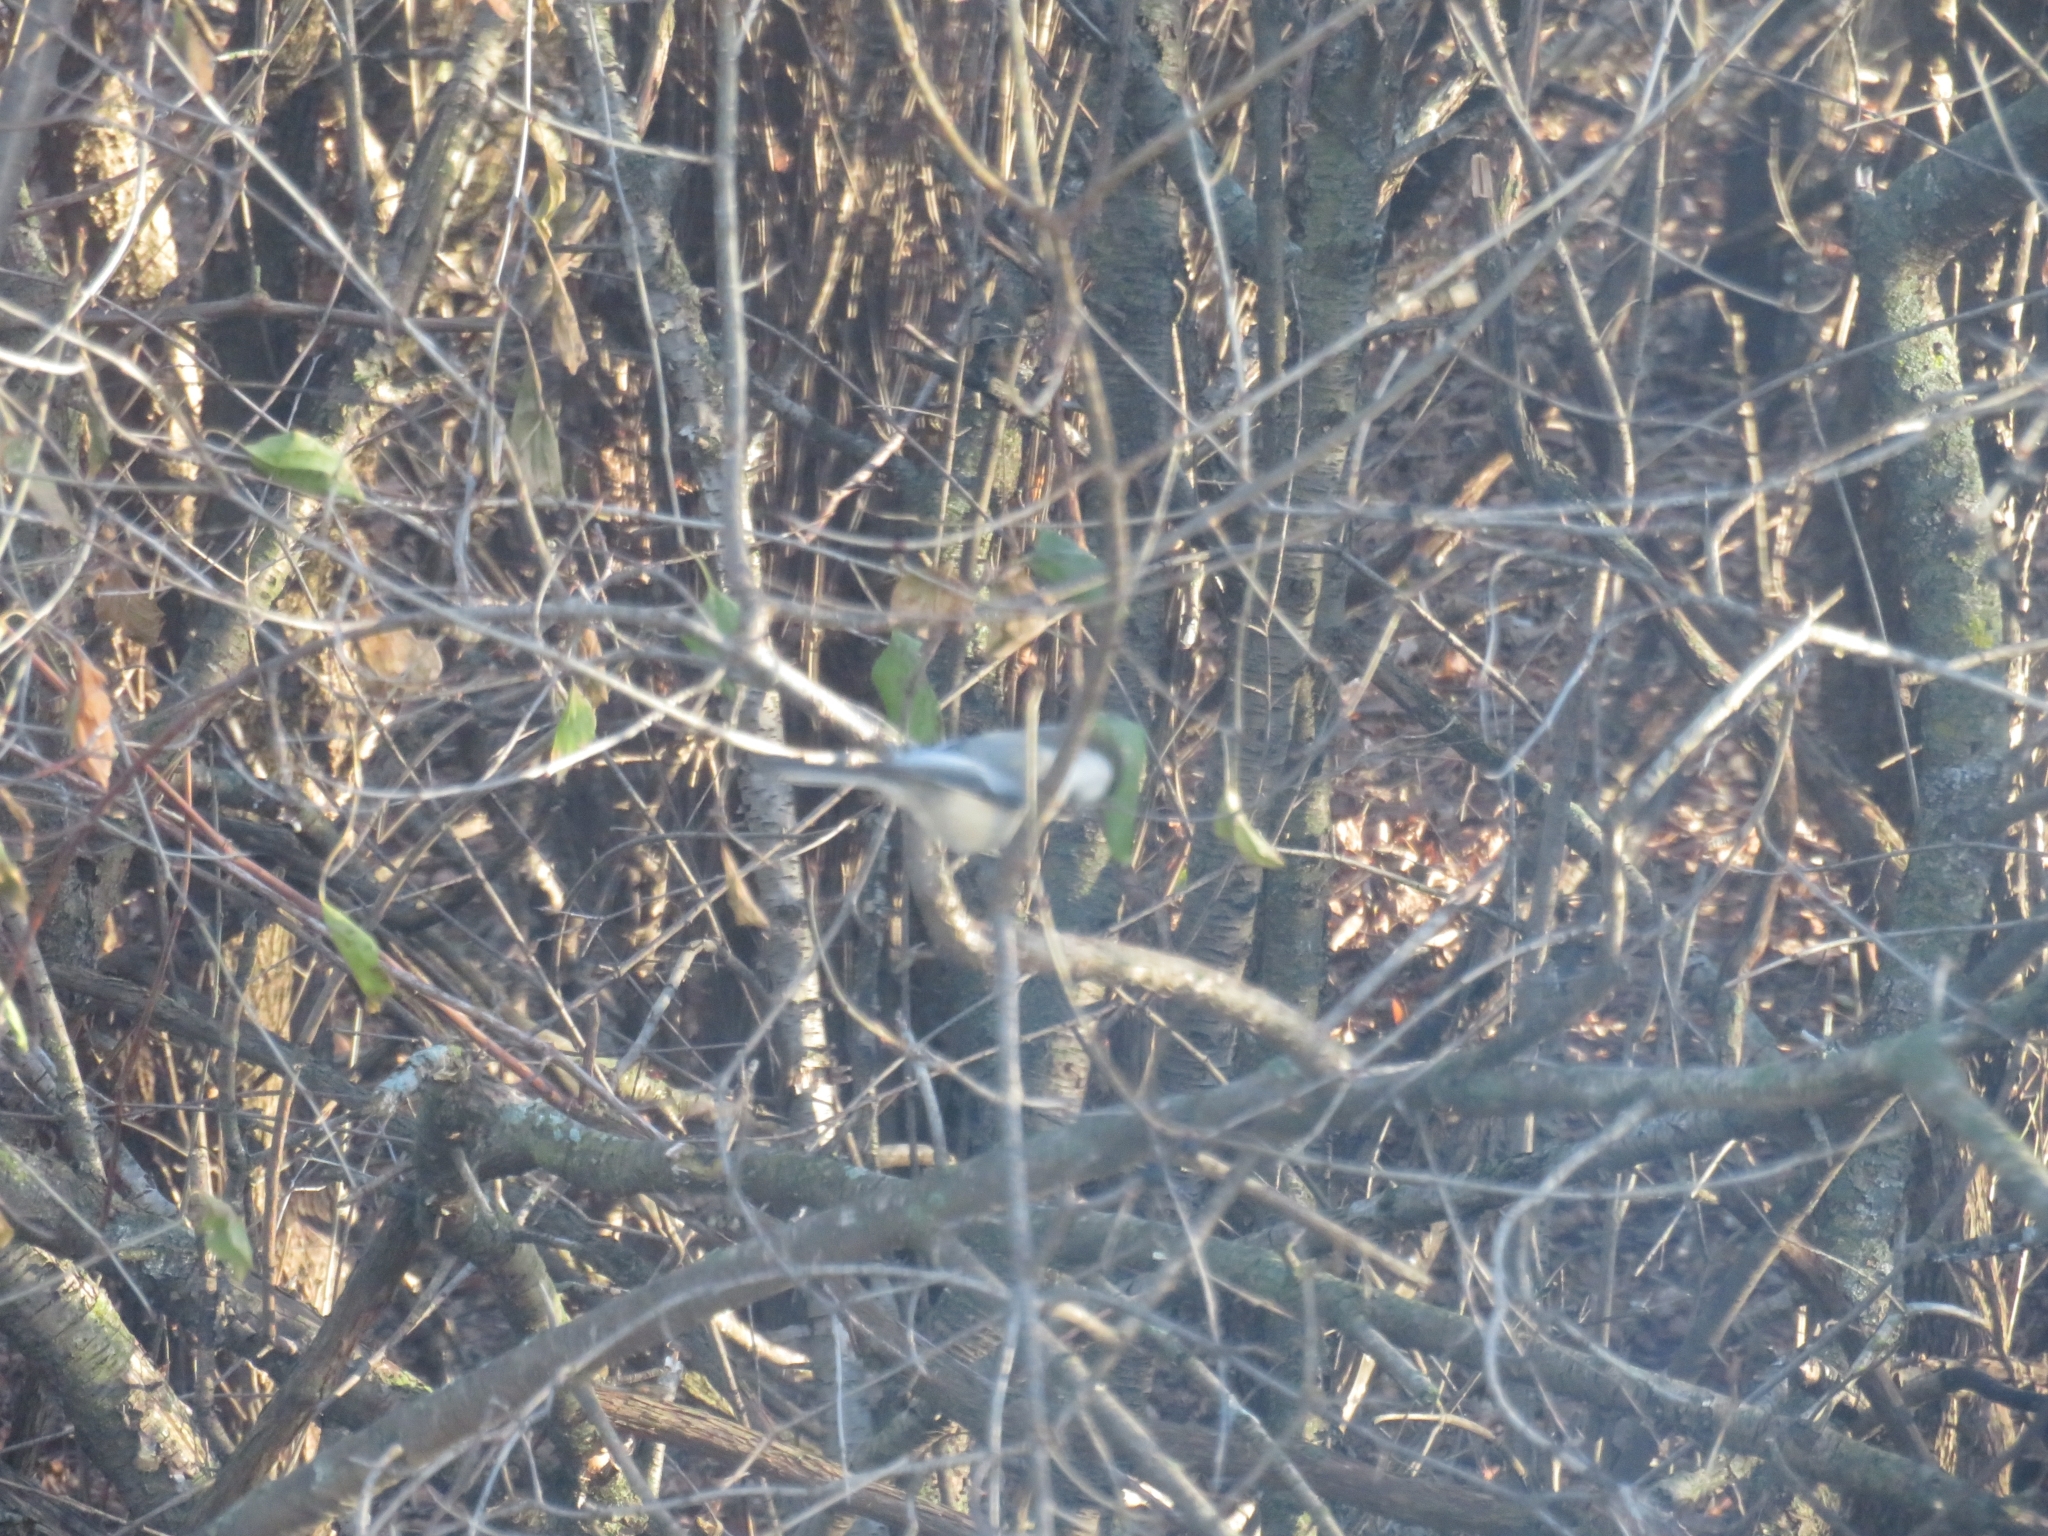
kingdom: Animalia
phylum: Chordata
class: Aves
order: Passeriformes
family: Paridae
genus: Poecile
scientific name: Poecile atricapillus
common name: Black-capped chickadee
